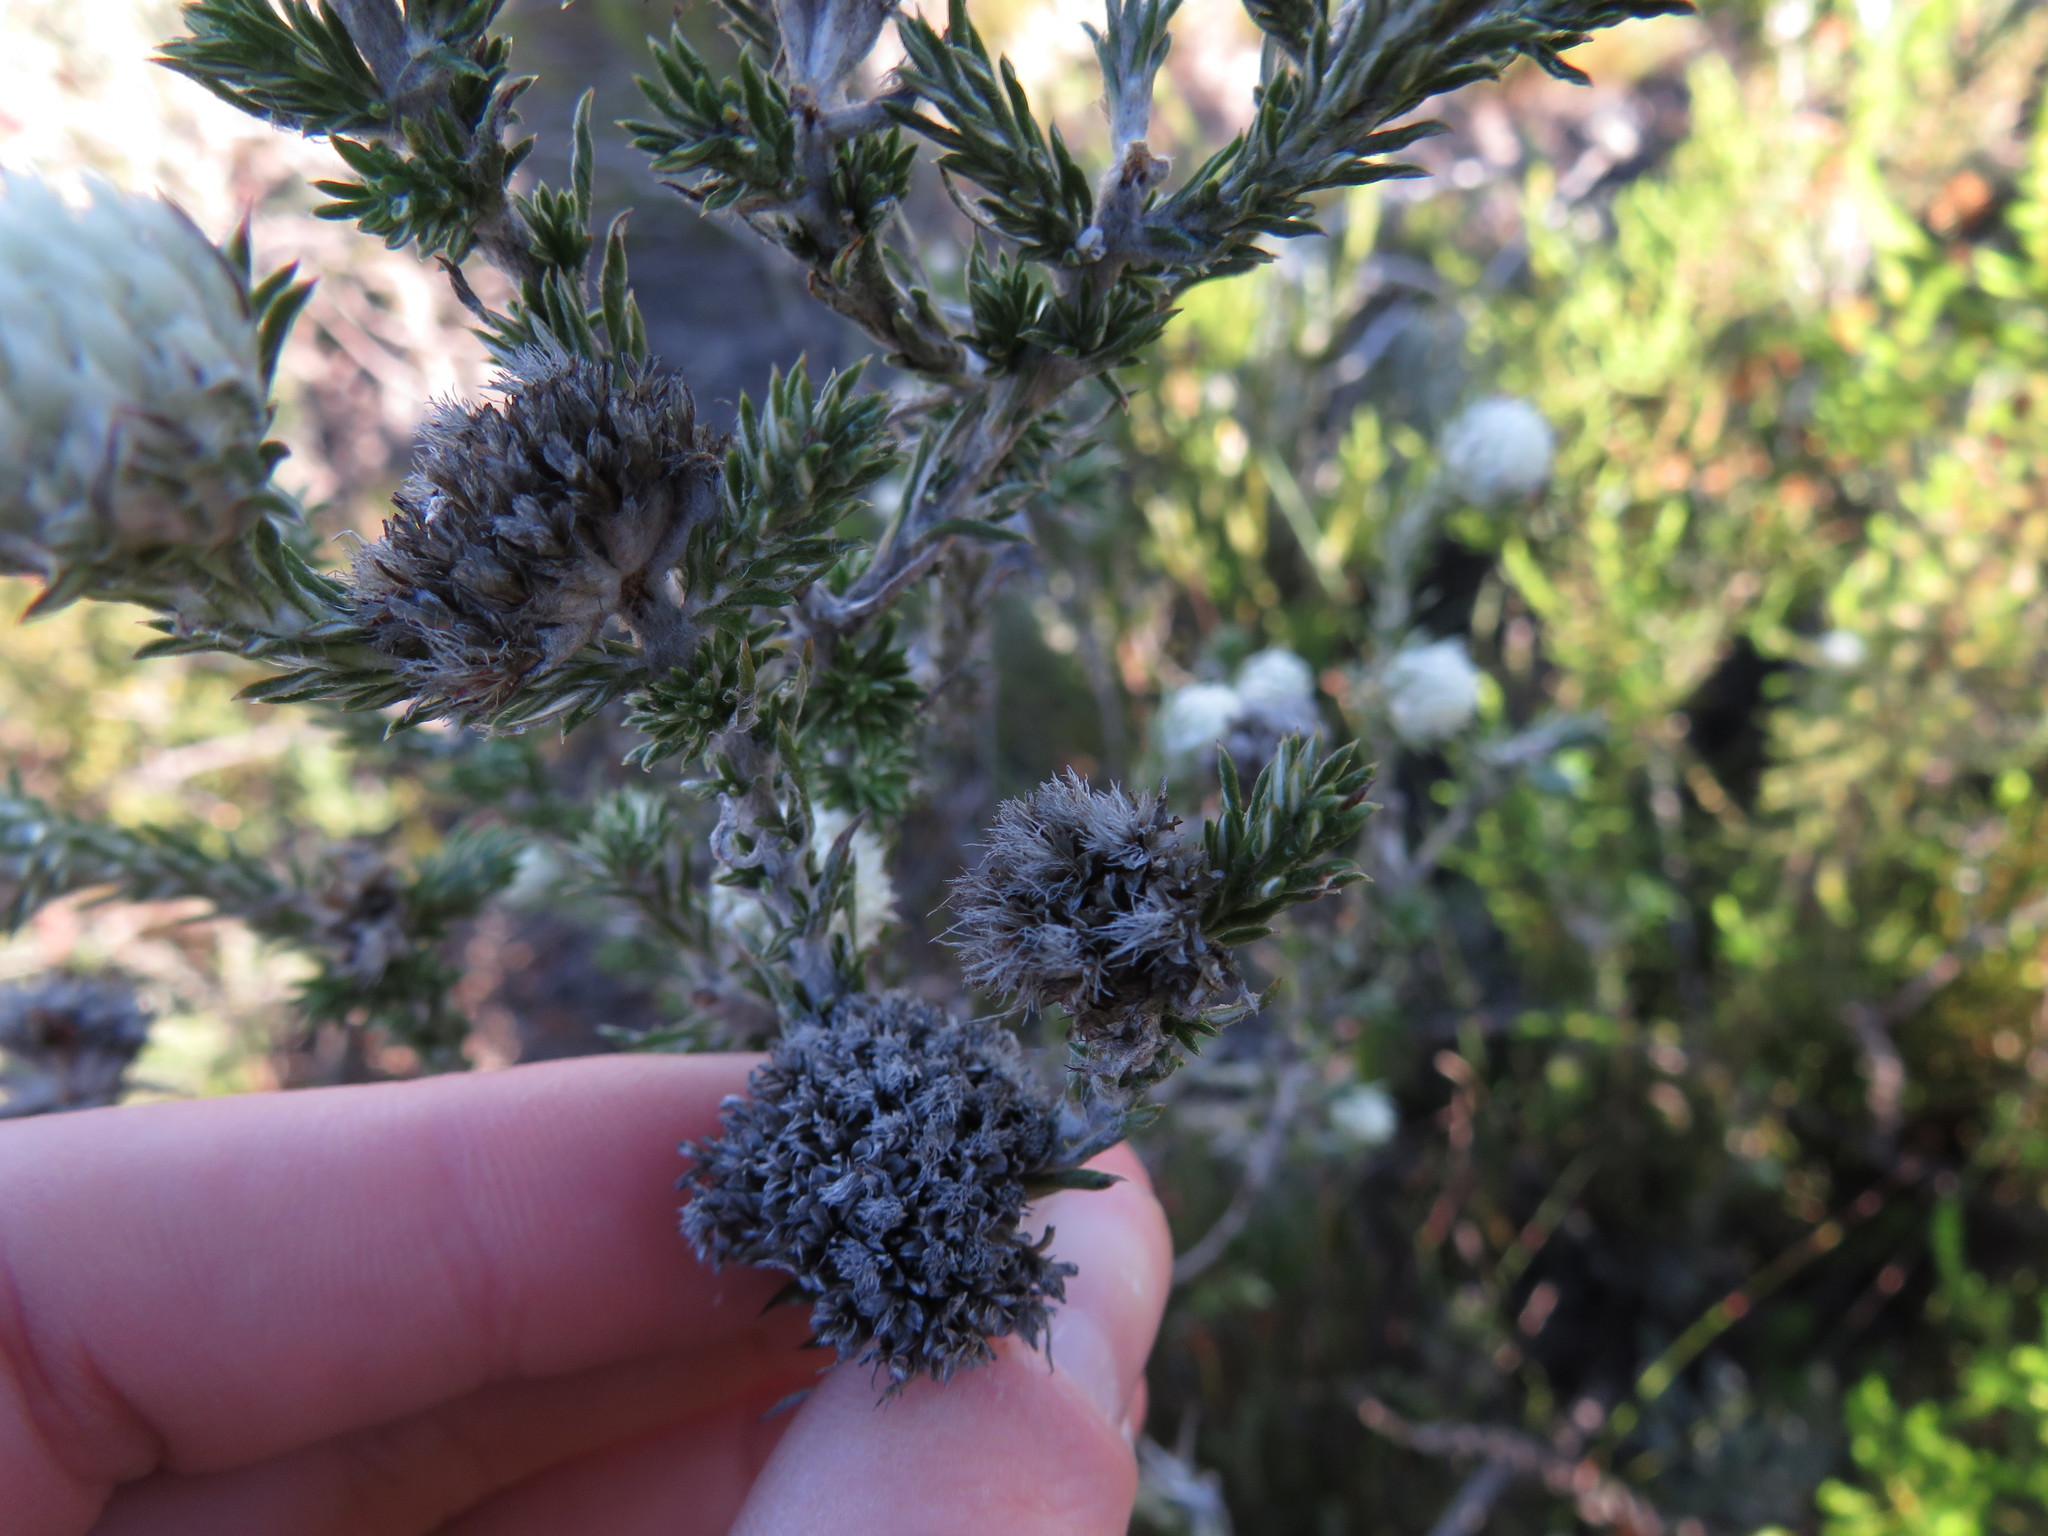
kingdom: Plantae
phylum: Tracheophyta
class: Magnoliopsida
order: Asterales
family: Asteraceae
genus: Metalasia
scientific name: Metalasia compacta
